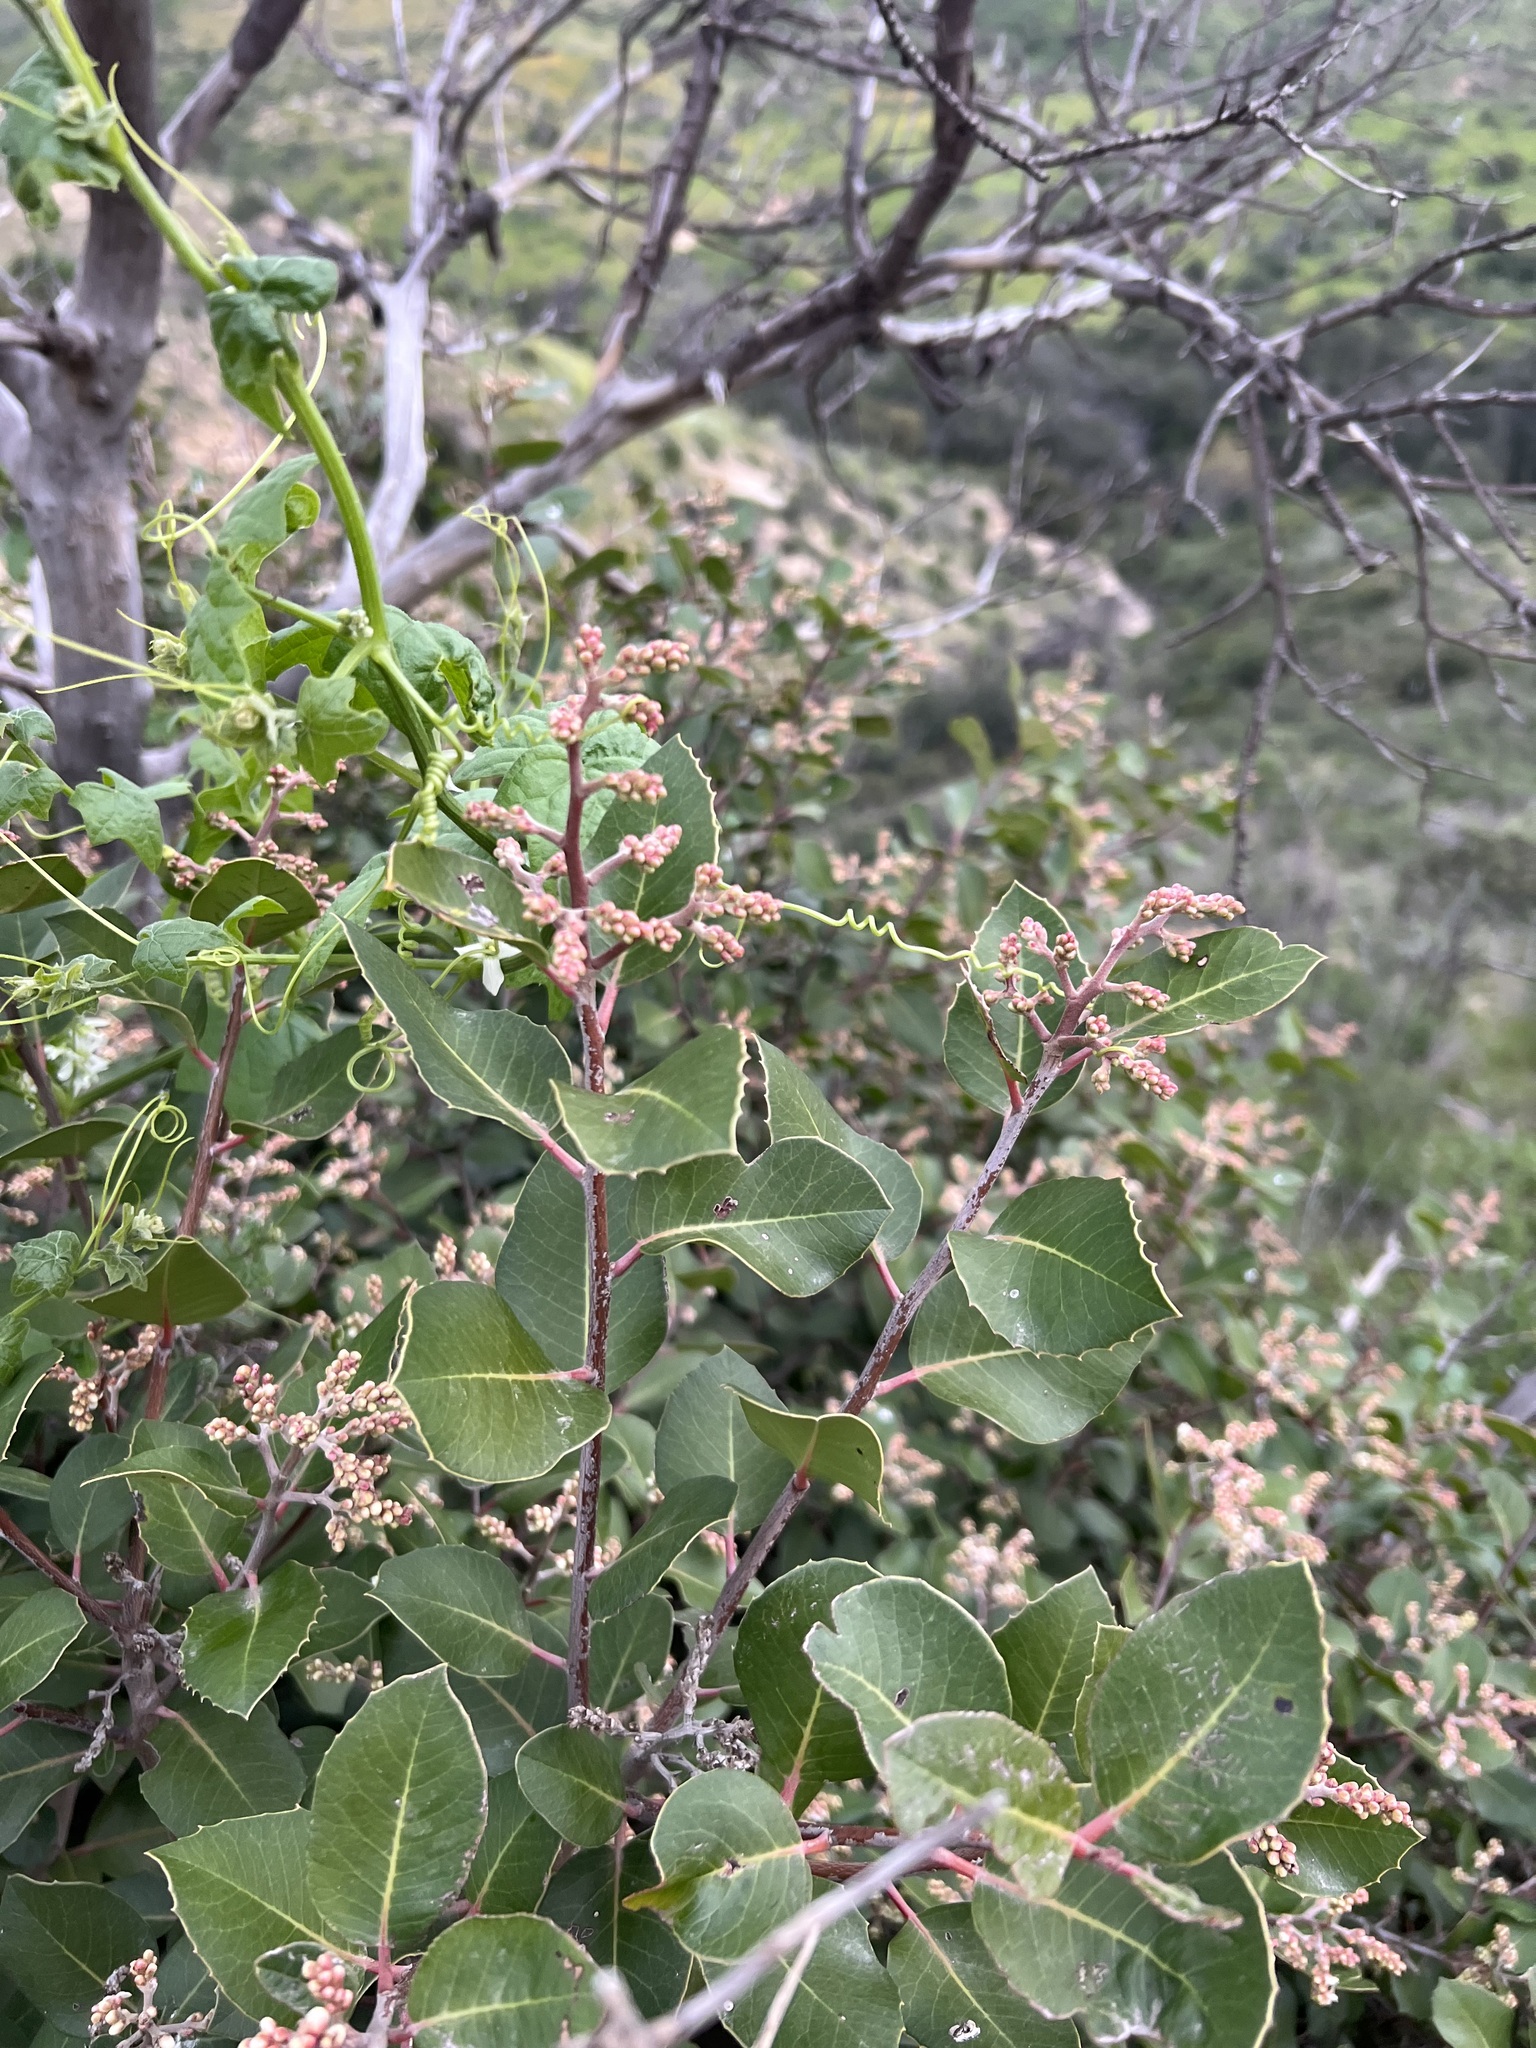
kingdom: Plantae
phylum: Tracheophyta
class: Magnoliopsida
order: Sapindales
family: Anacardiaceae
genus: Rhus
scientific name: Rhus
